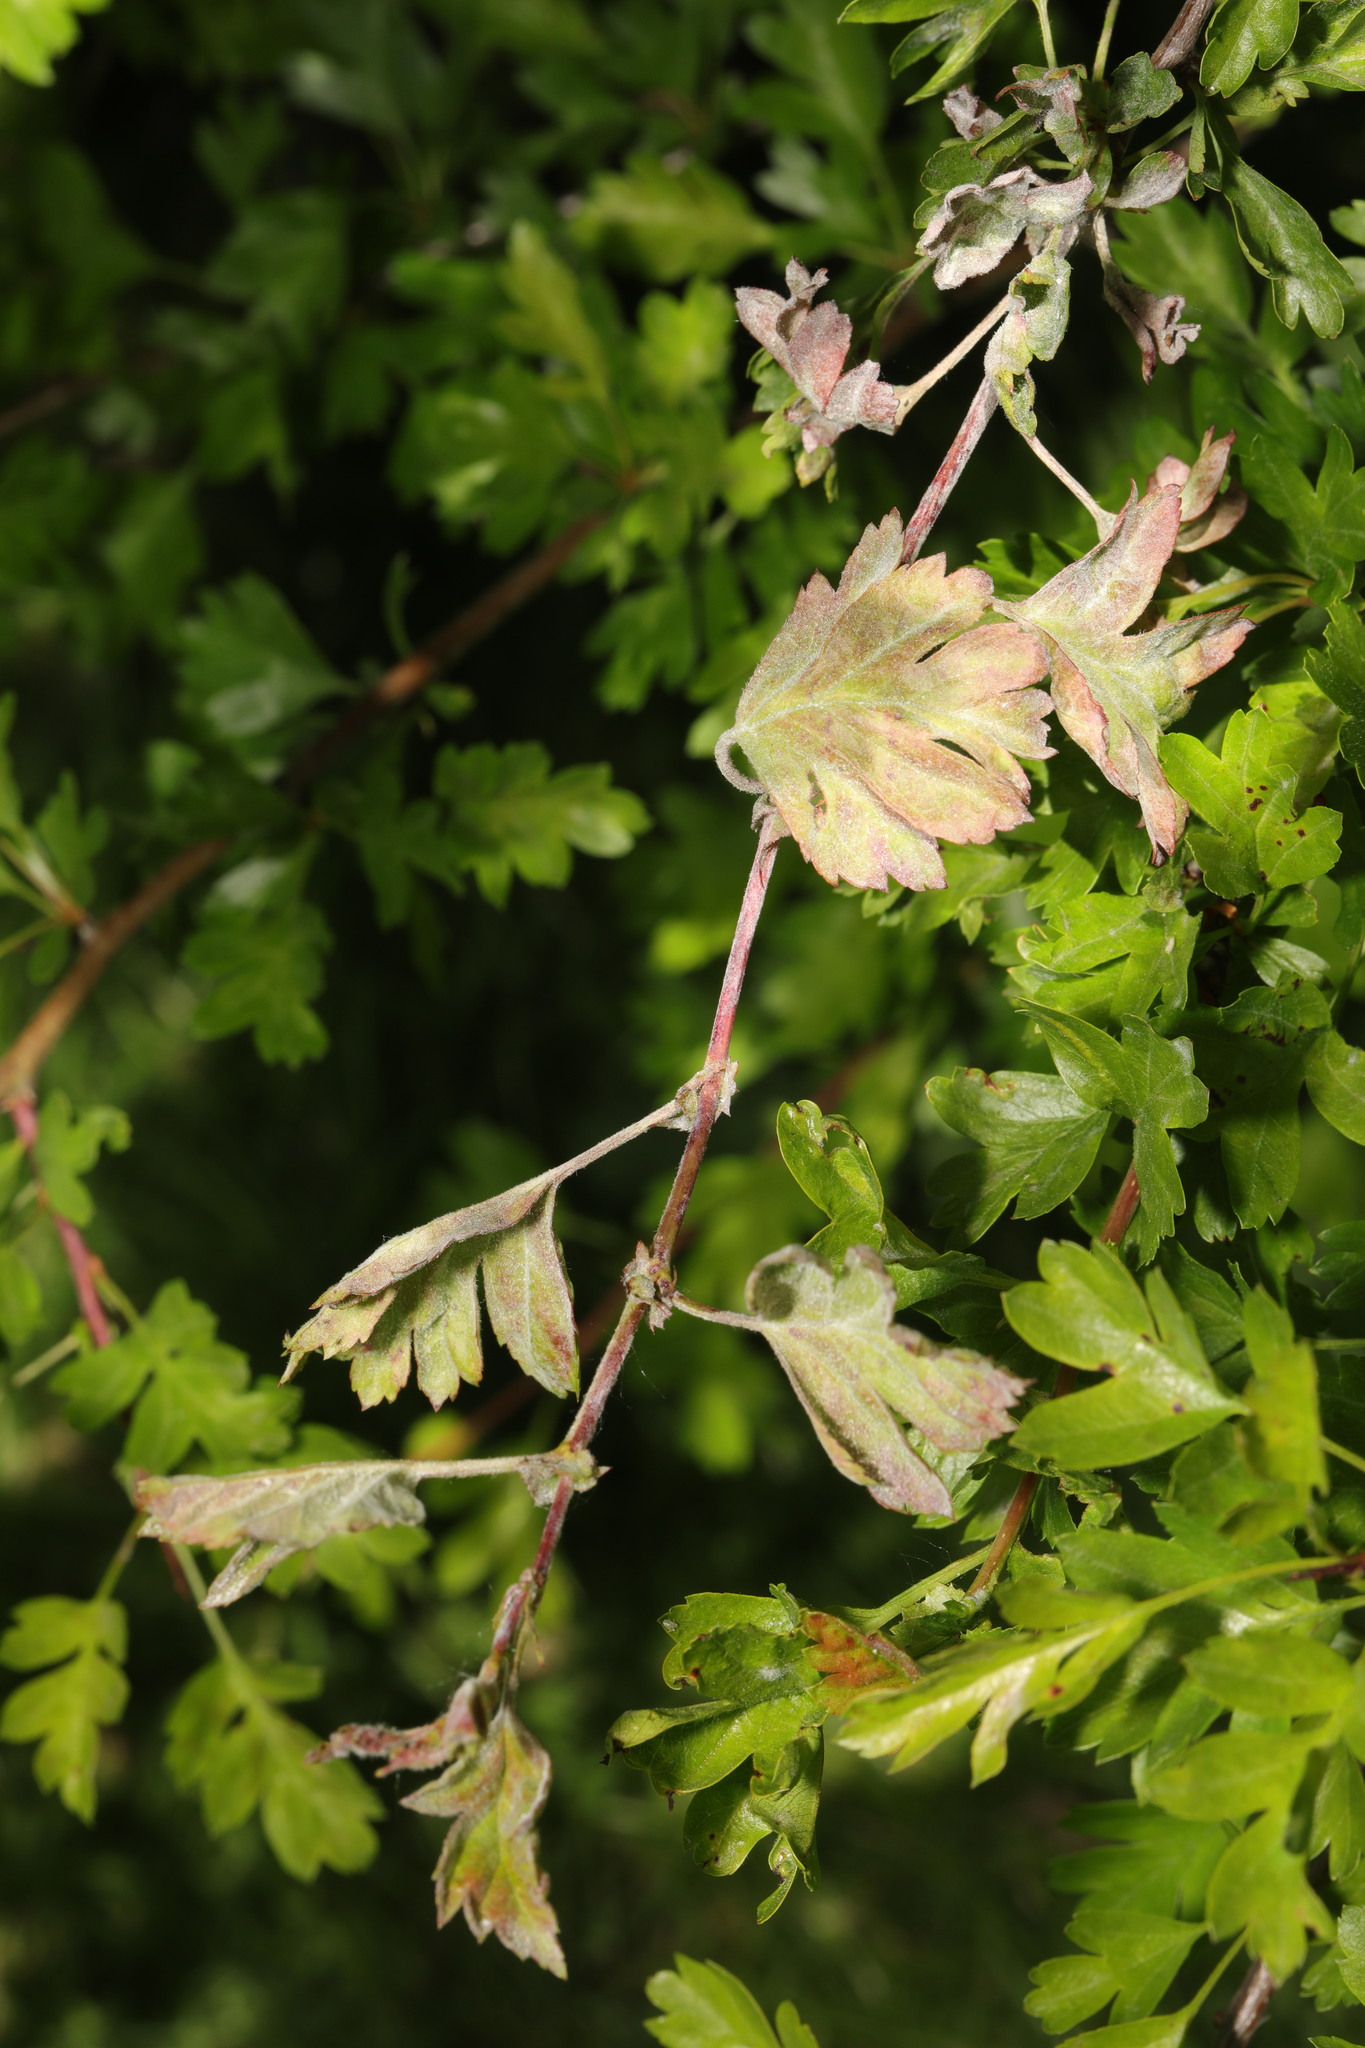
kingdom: Fungi
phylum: Ascomycota
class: Leotiomycetes
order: Helotiales
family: Erysiphaceae
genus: Podosphaera
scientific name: Podosphaera clandestina
